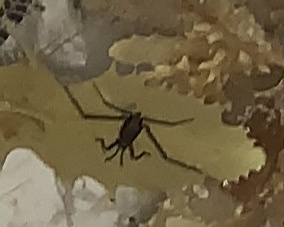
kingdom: Animalia
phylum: Arthropoda
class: Insecta
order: Hemiptera
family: Gerridae
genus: Halobates
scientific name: Halobates micans
